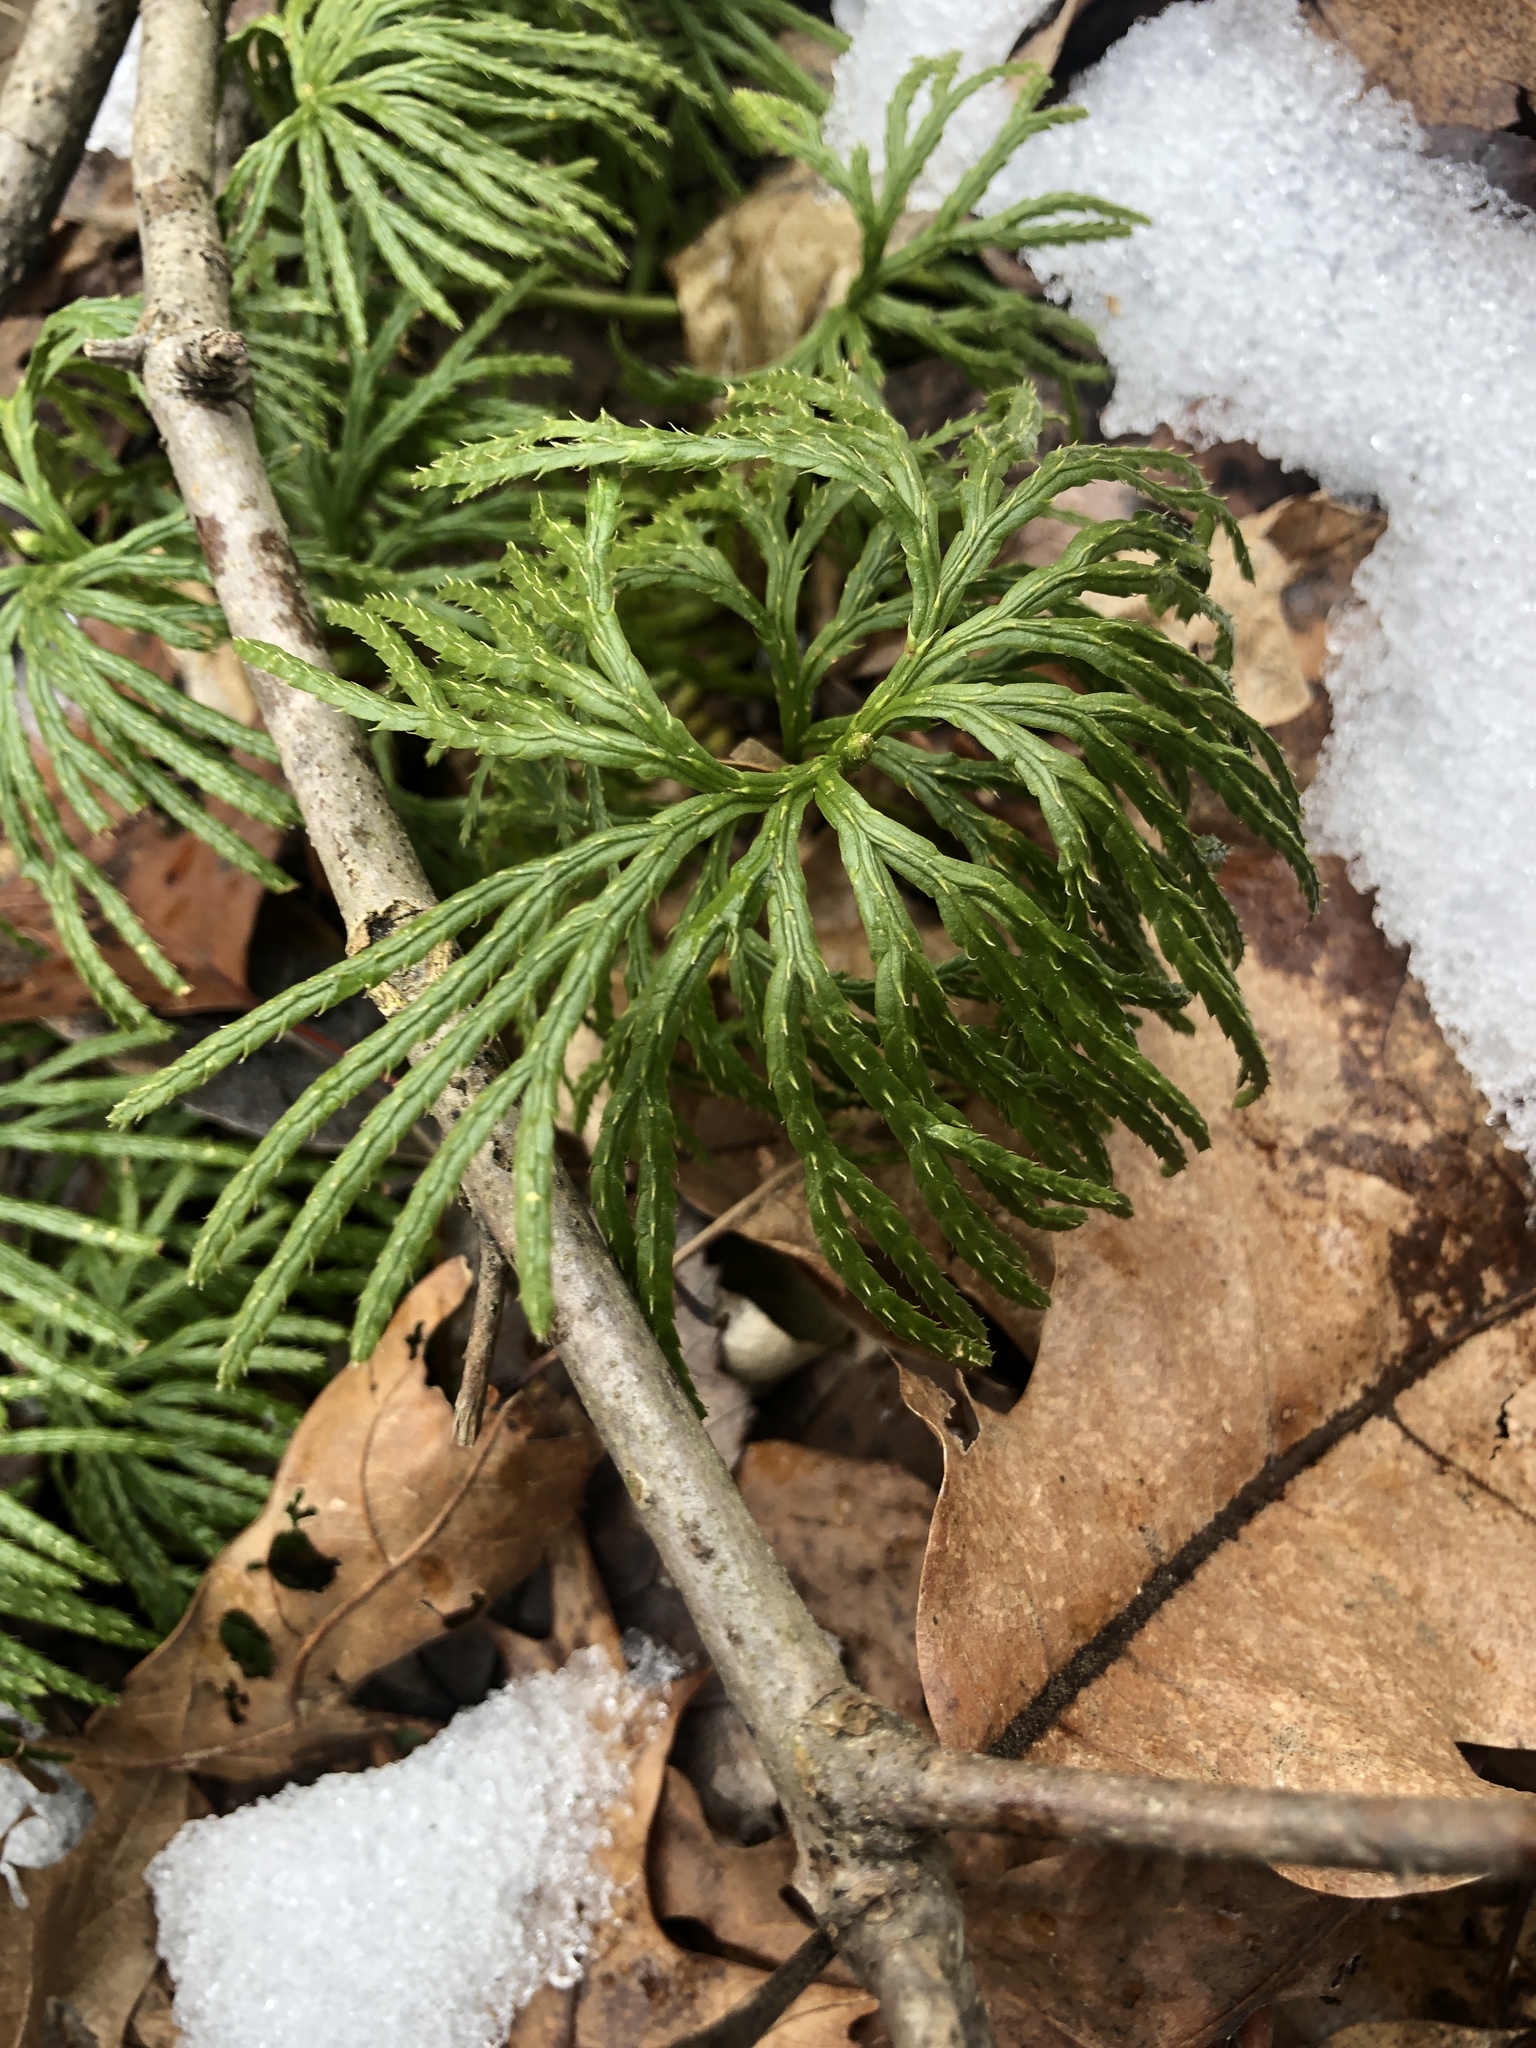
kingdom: Plantae
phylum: Tracheophyta
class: Lycopodiopsida
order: Lycopodiales
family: Lycopodiaceae
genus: Diphasiastrum
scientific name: Diphasiastrum digitatum
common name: Southern running-pine
